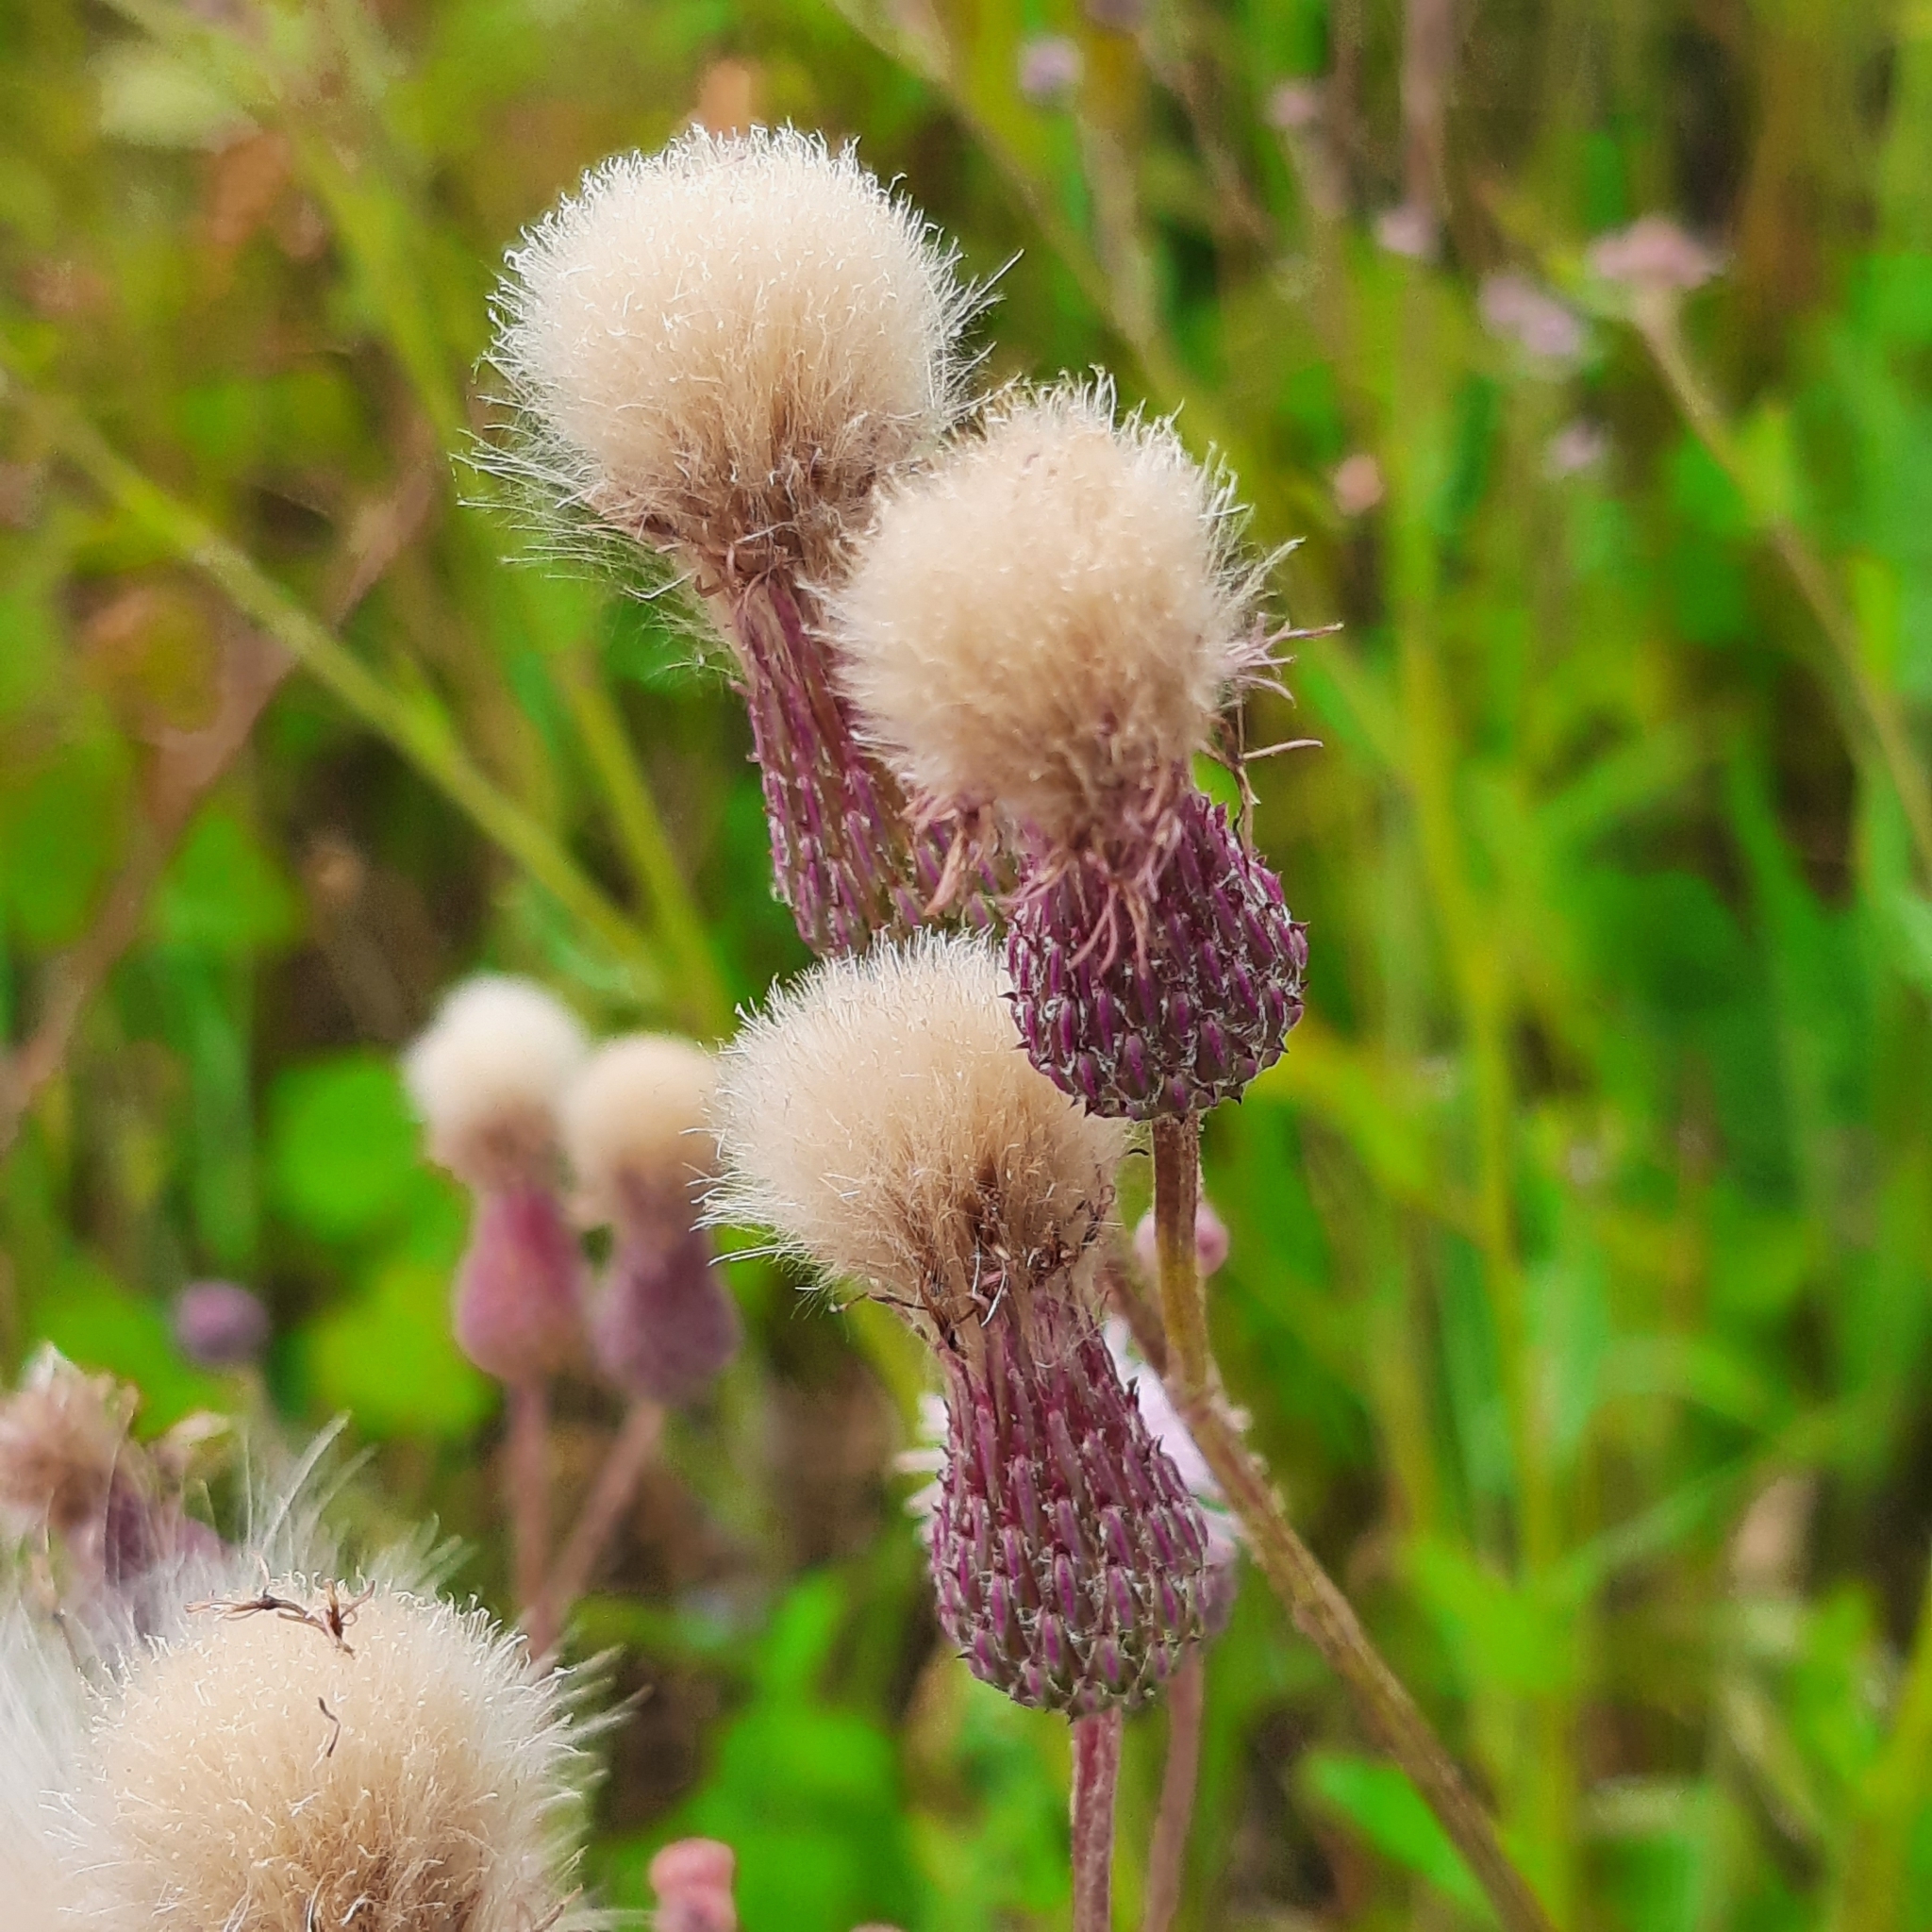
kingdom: Plantae
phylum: Tracheophyta
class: Magnoliopsida
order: Asterales
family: Asteraceae
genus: Cirsium
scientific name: Cirsium arvense
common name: Creeping thistle
